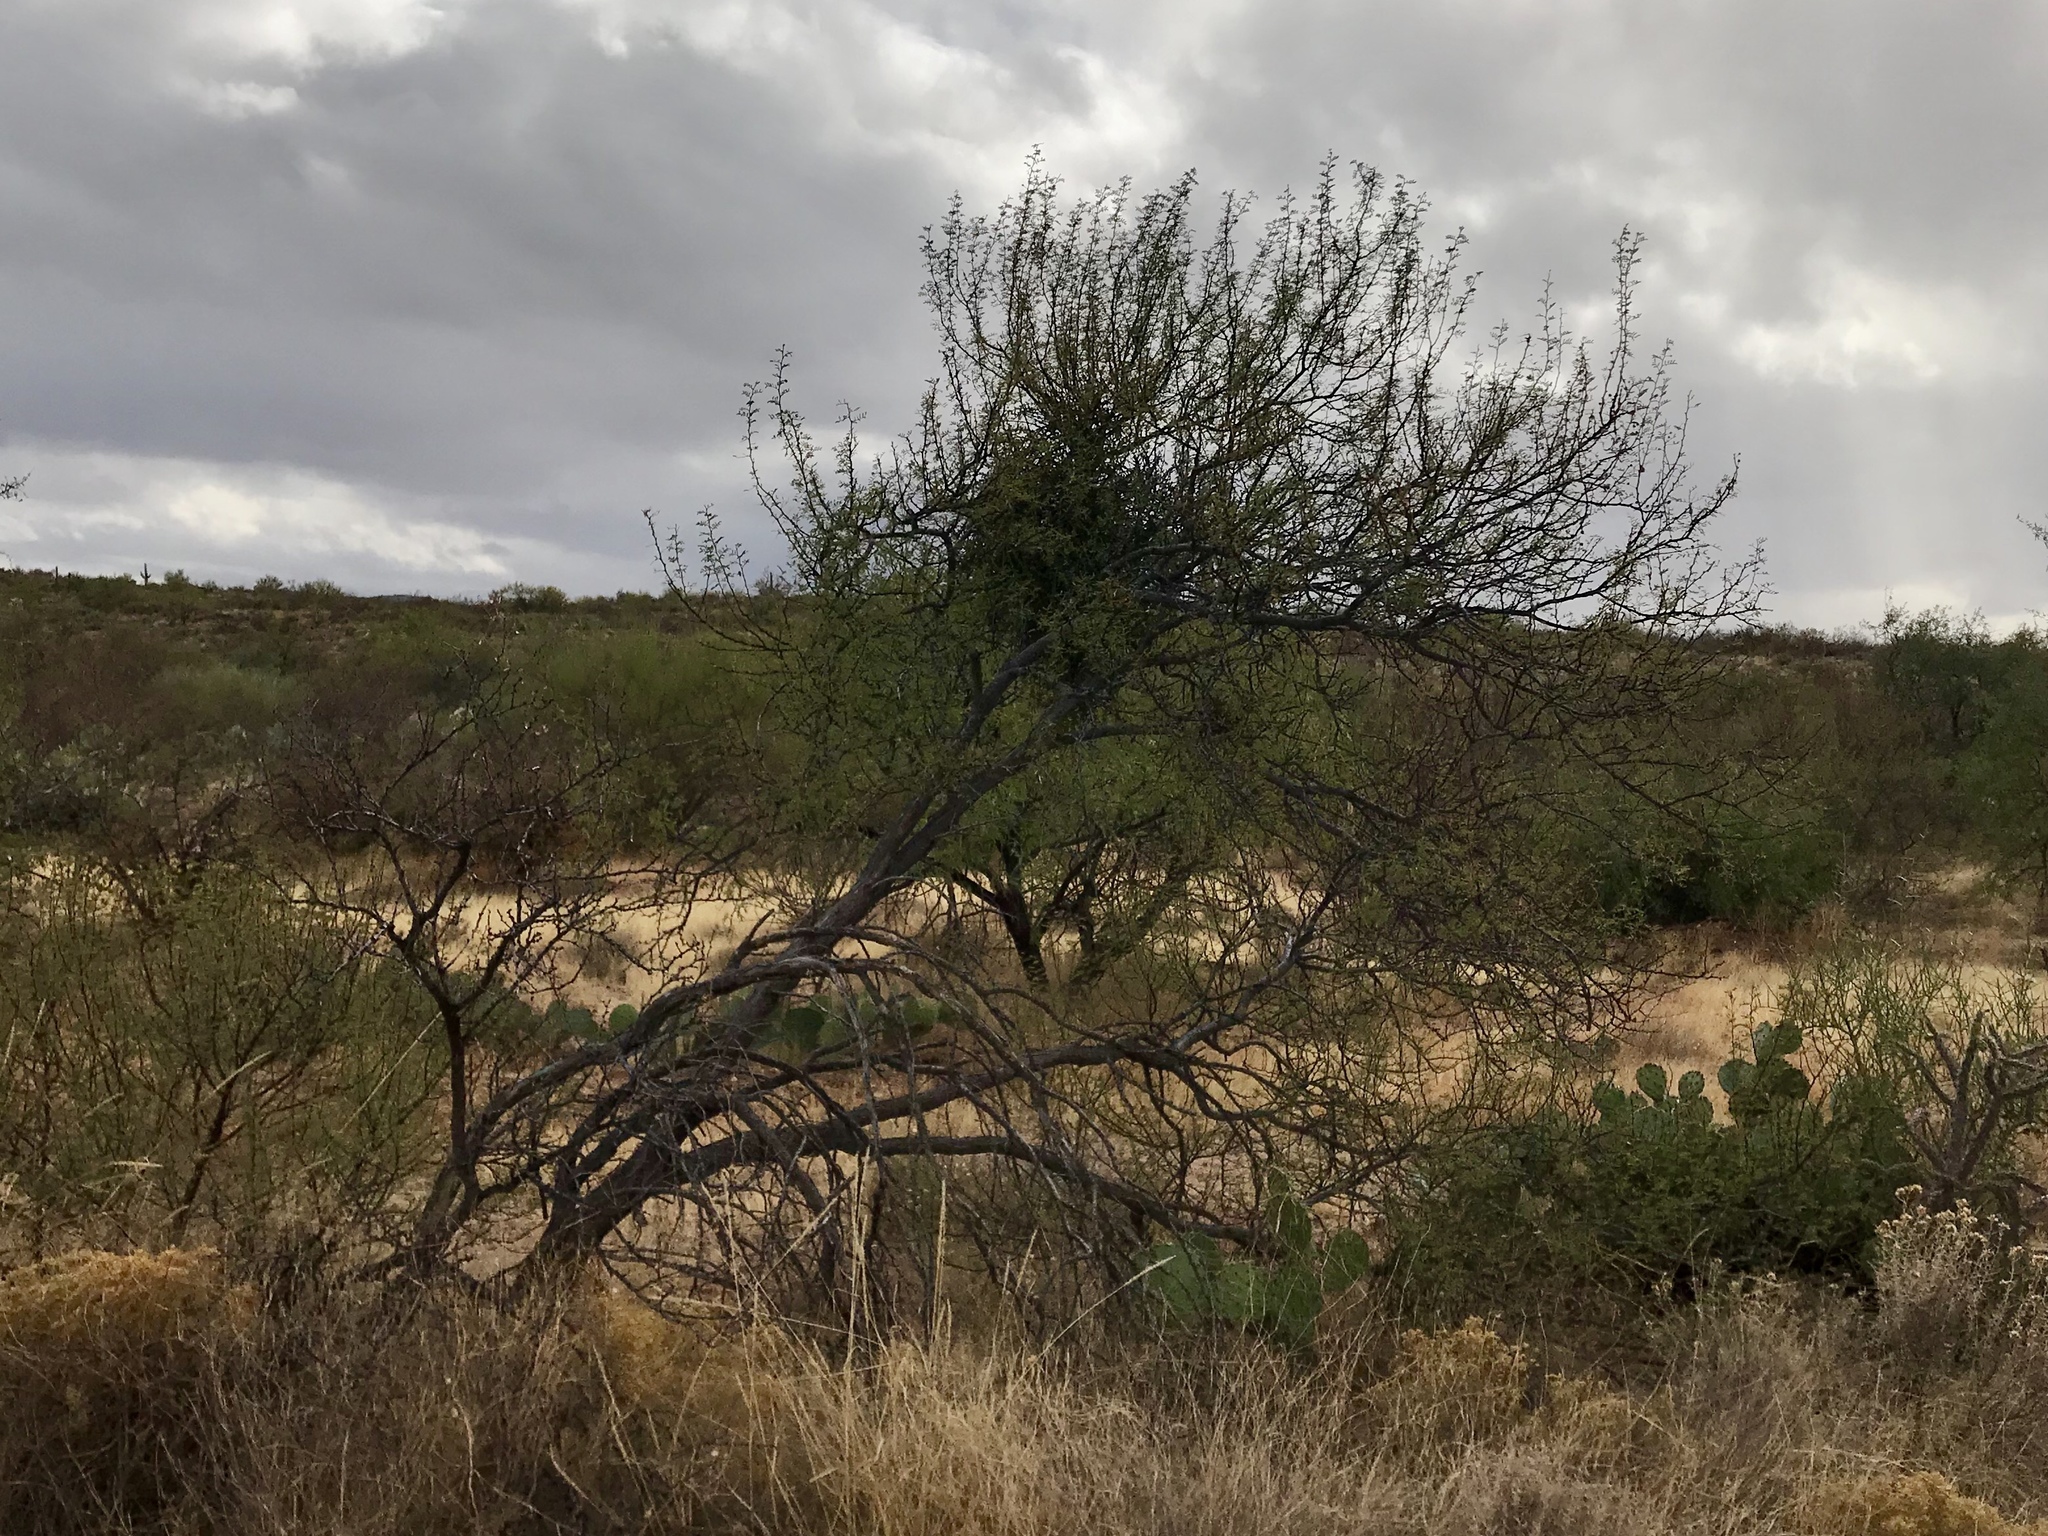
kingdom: Plantae
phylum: Tracheophyta
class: Magnoliopsida
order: Fabales
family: Fabaceae
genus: Senegalia
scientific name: Senegalia greggii
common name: Texas-mimosa
